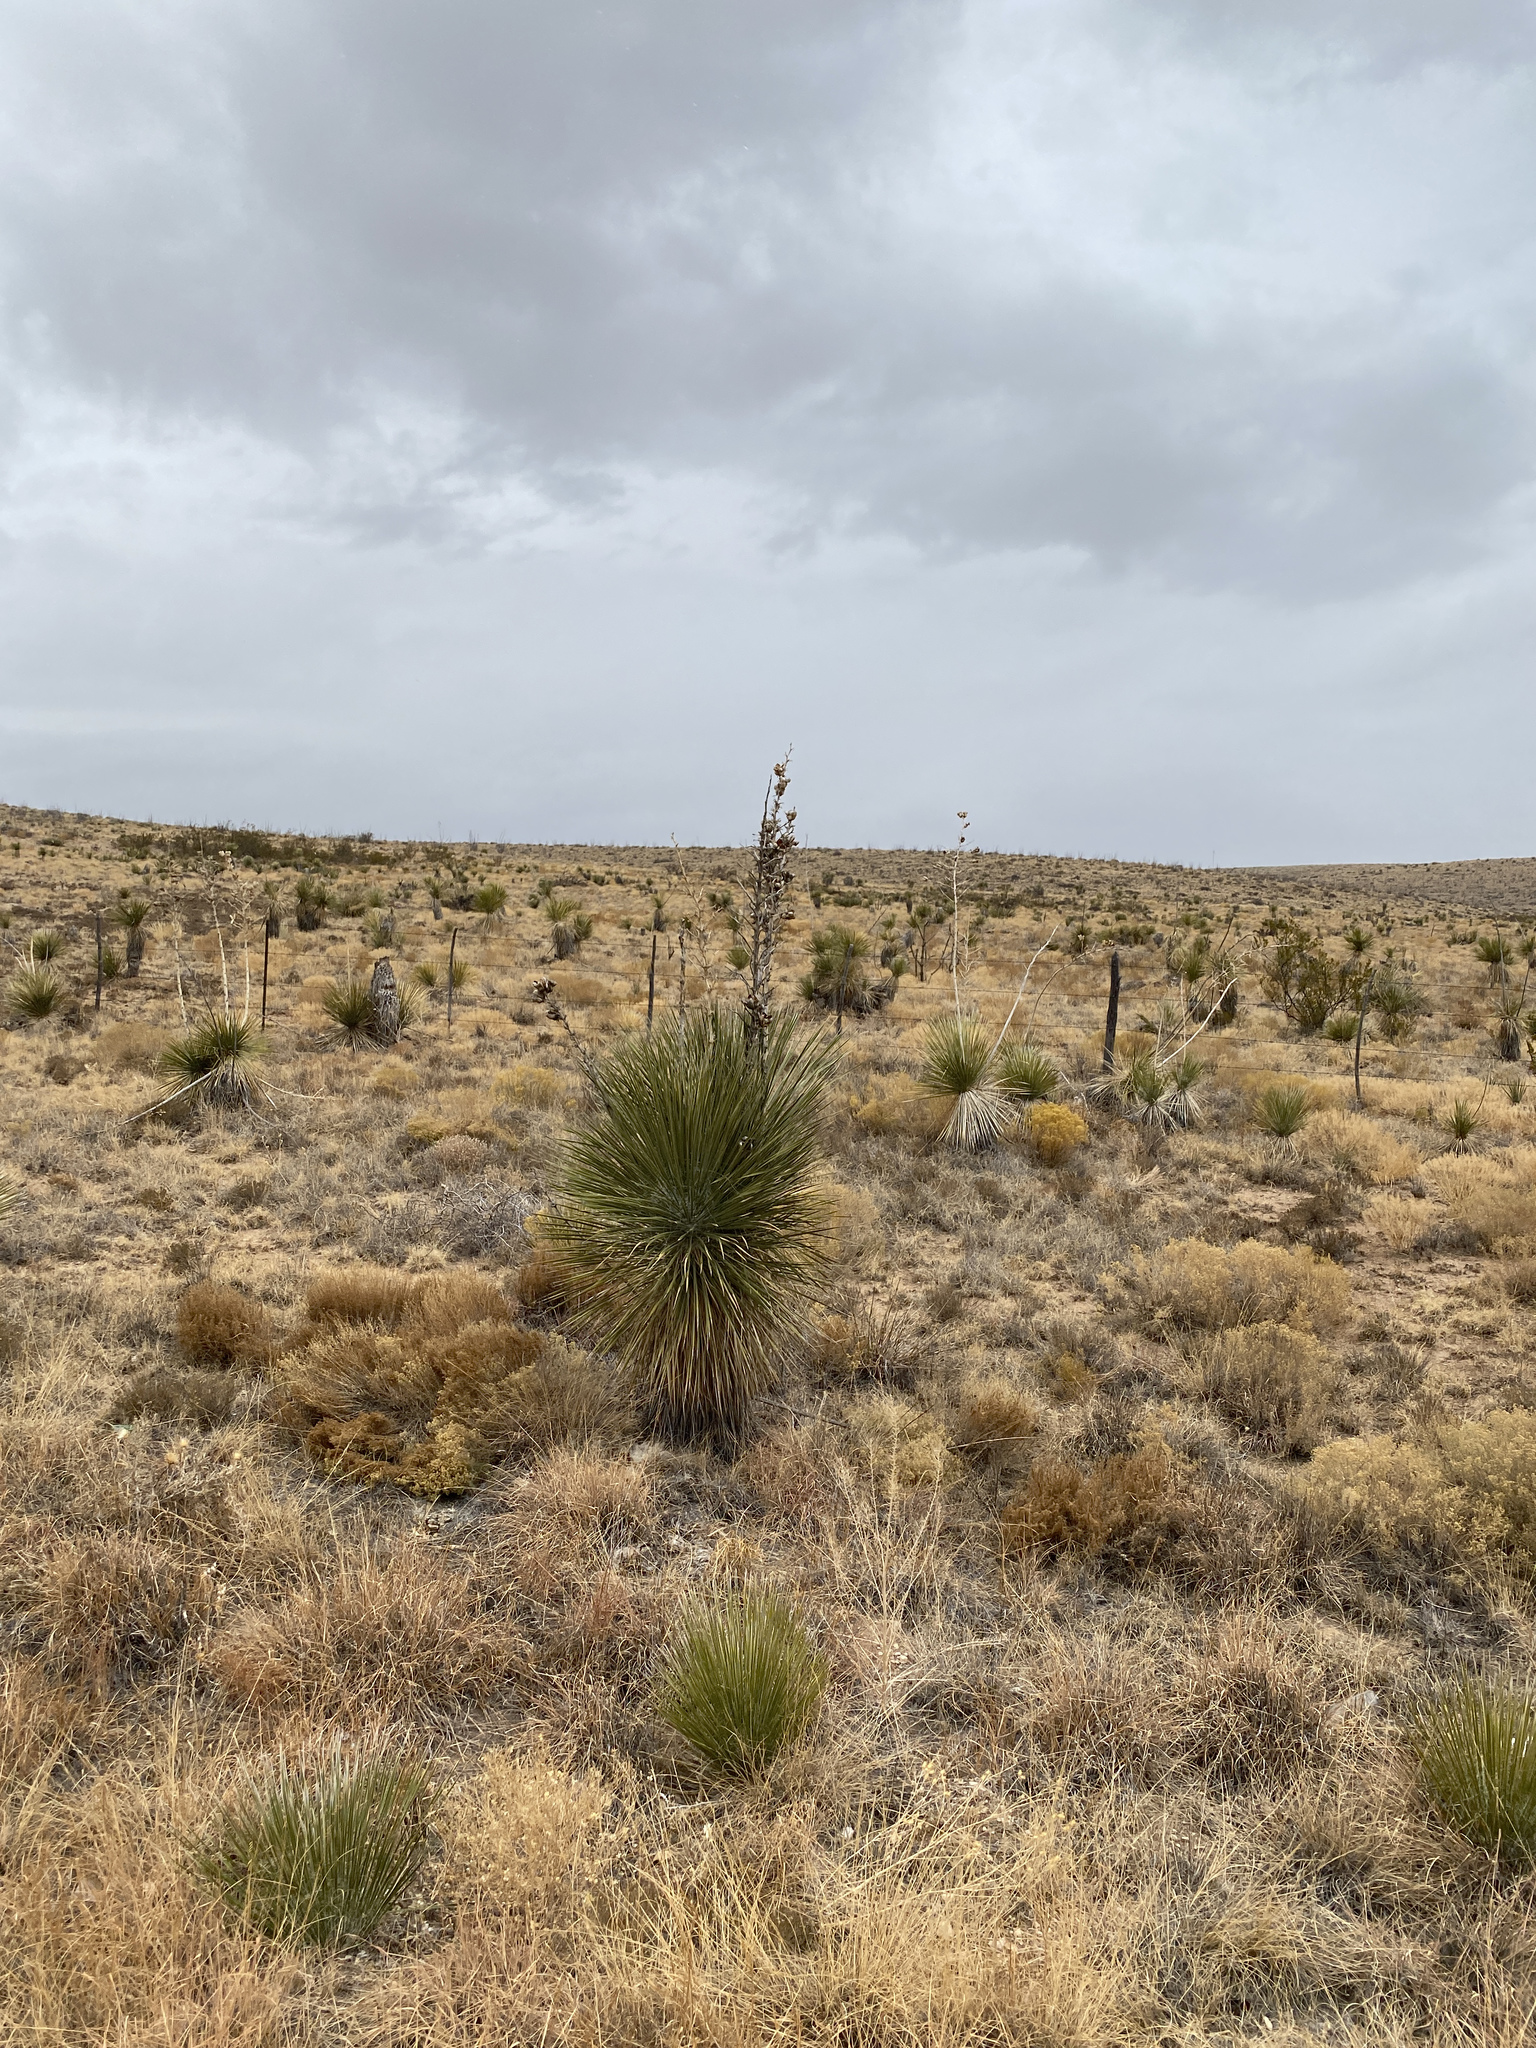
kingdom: Plantae
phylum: Tracheophyta
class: Liliopsida
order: Asparagales
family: Asparagaceae
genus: Yucca
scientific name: Yucca elata
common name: Palmella
